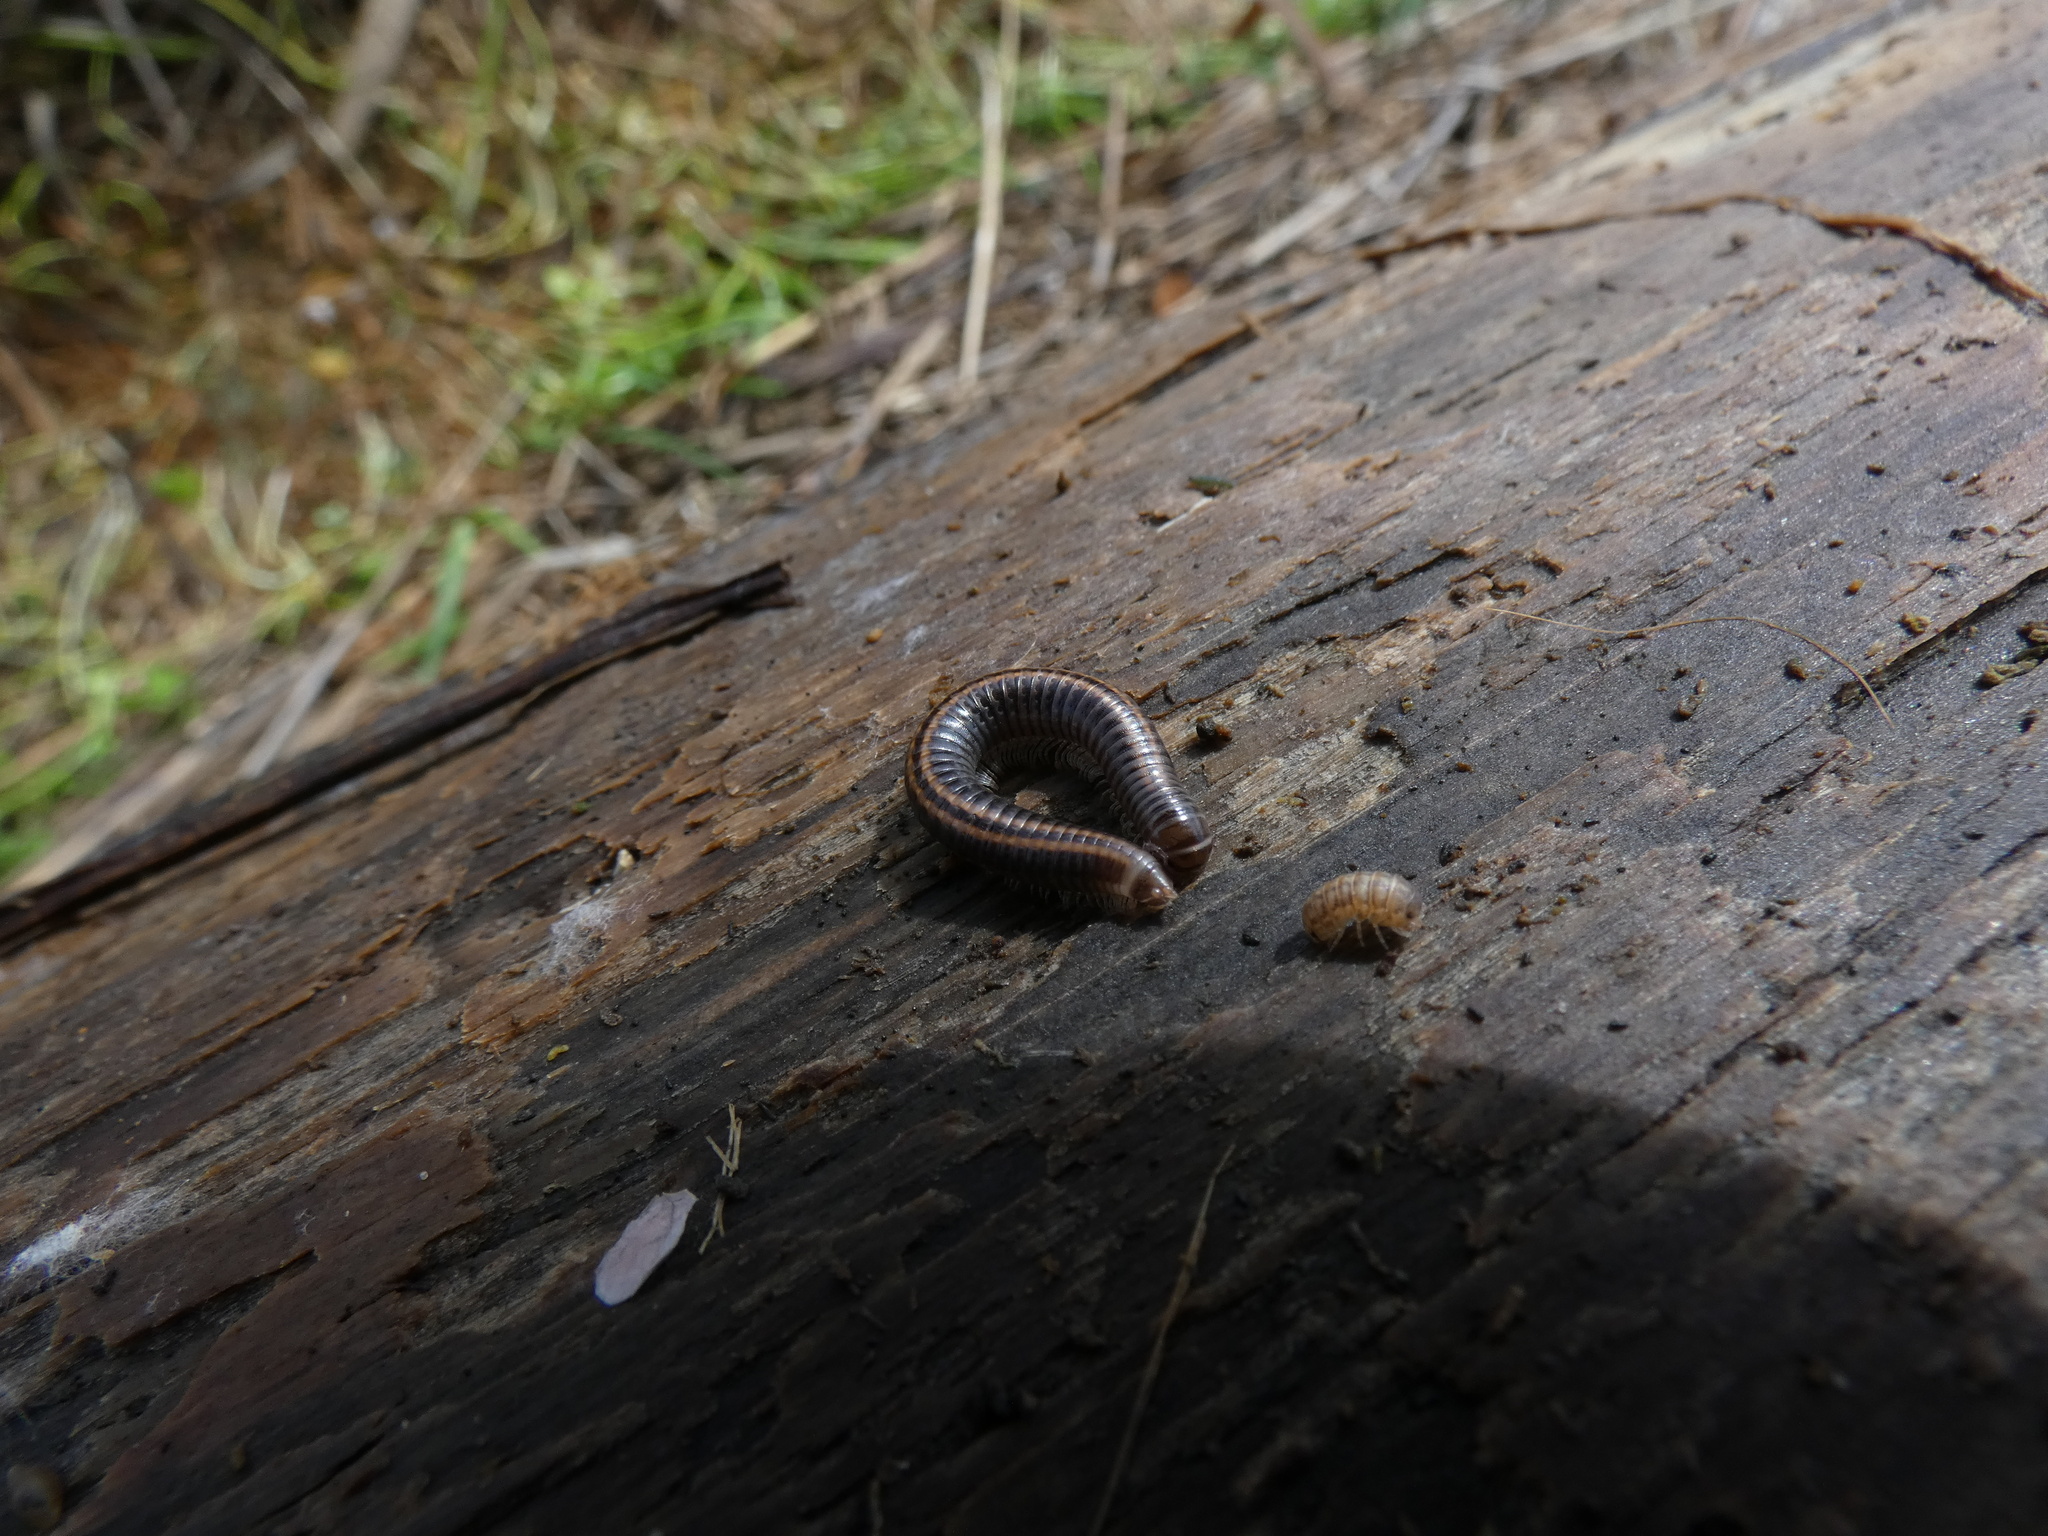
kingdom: Animalia
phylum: Arthropoda
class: Diplopoda
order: Julida
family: Julidae
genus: Ommatoiulus
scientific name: Ommatoiulus sabulosus
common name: Striped millipede
